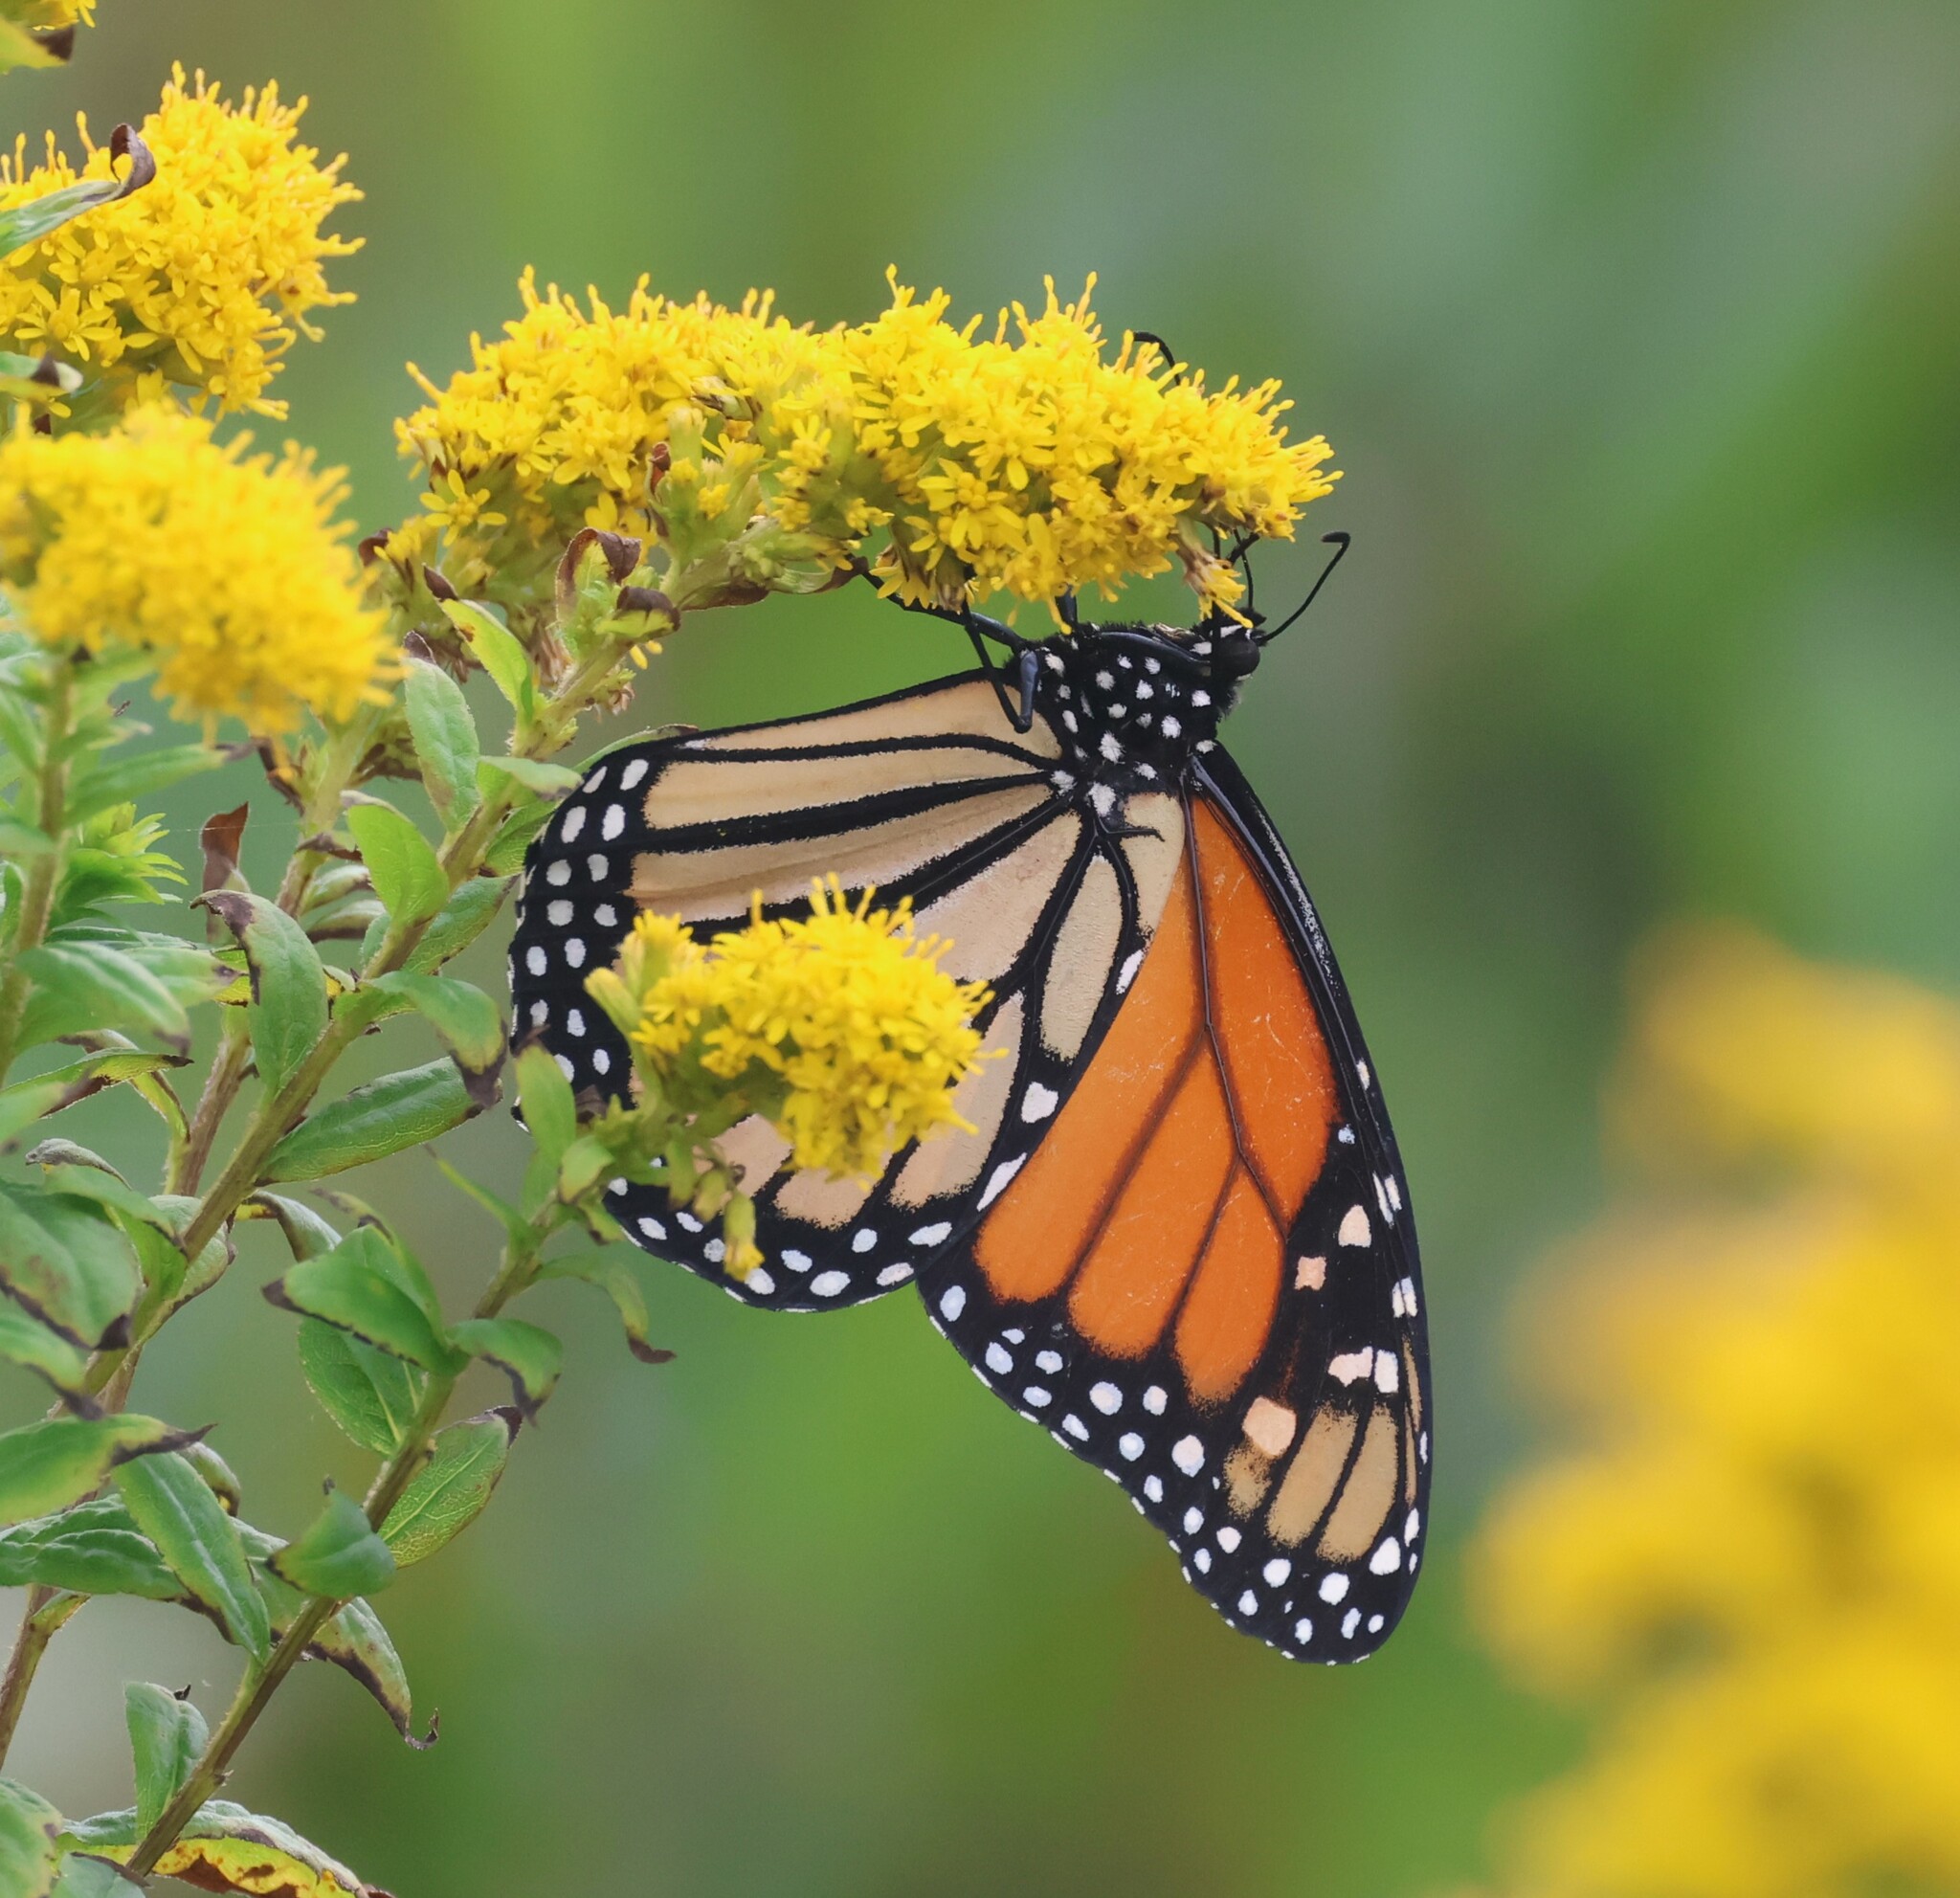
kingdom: Animalia
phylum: Arthropoda
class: Insecta
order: Lepidoptera
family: Nymphalidae
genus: Danaus
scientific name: Danaus plexippus
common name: Monarch
